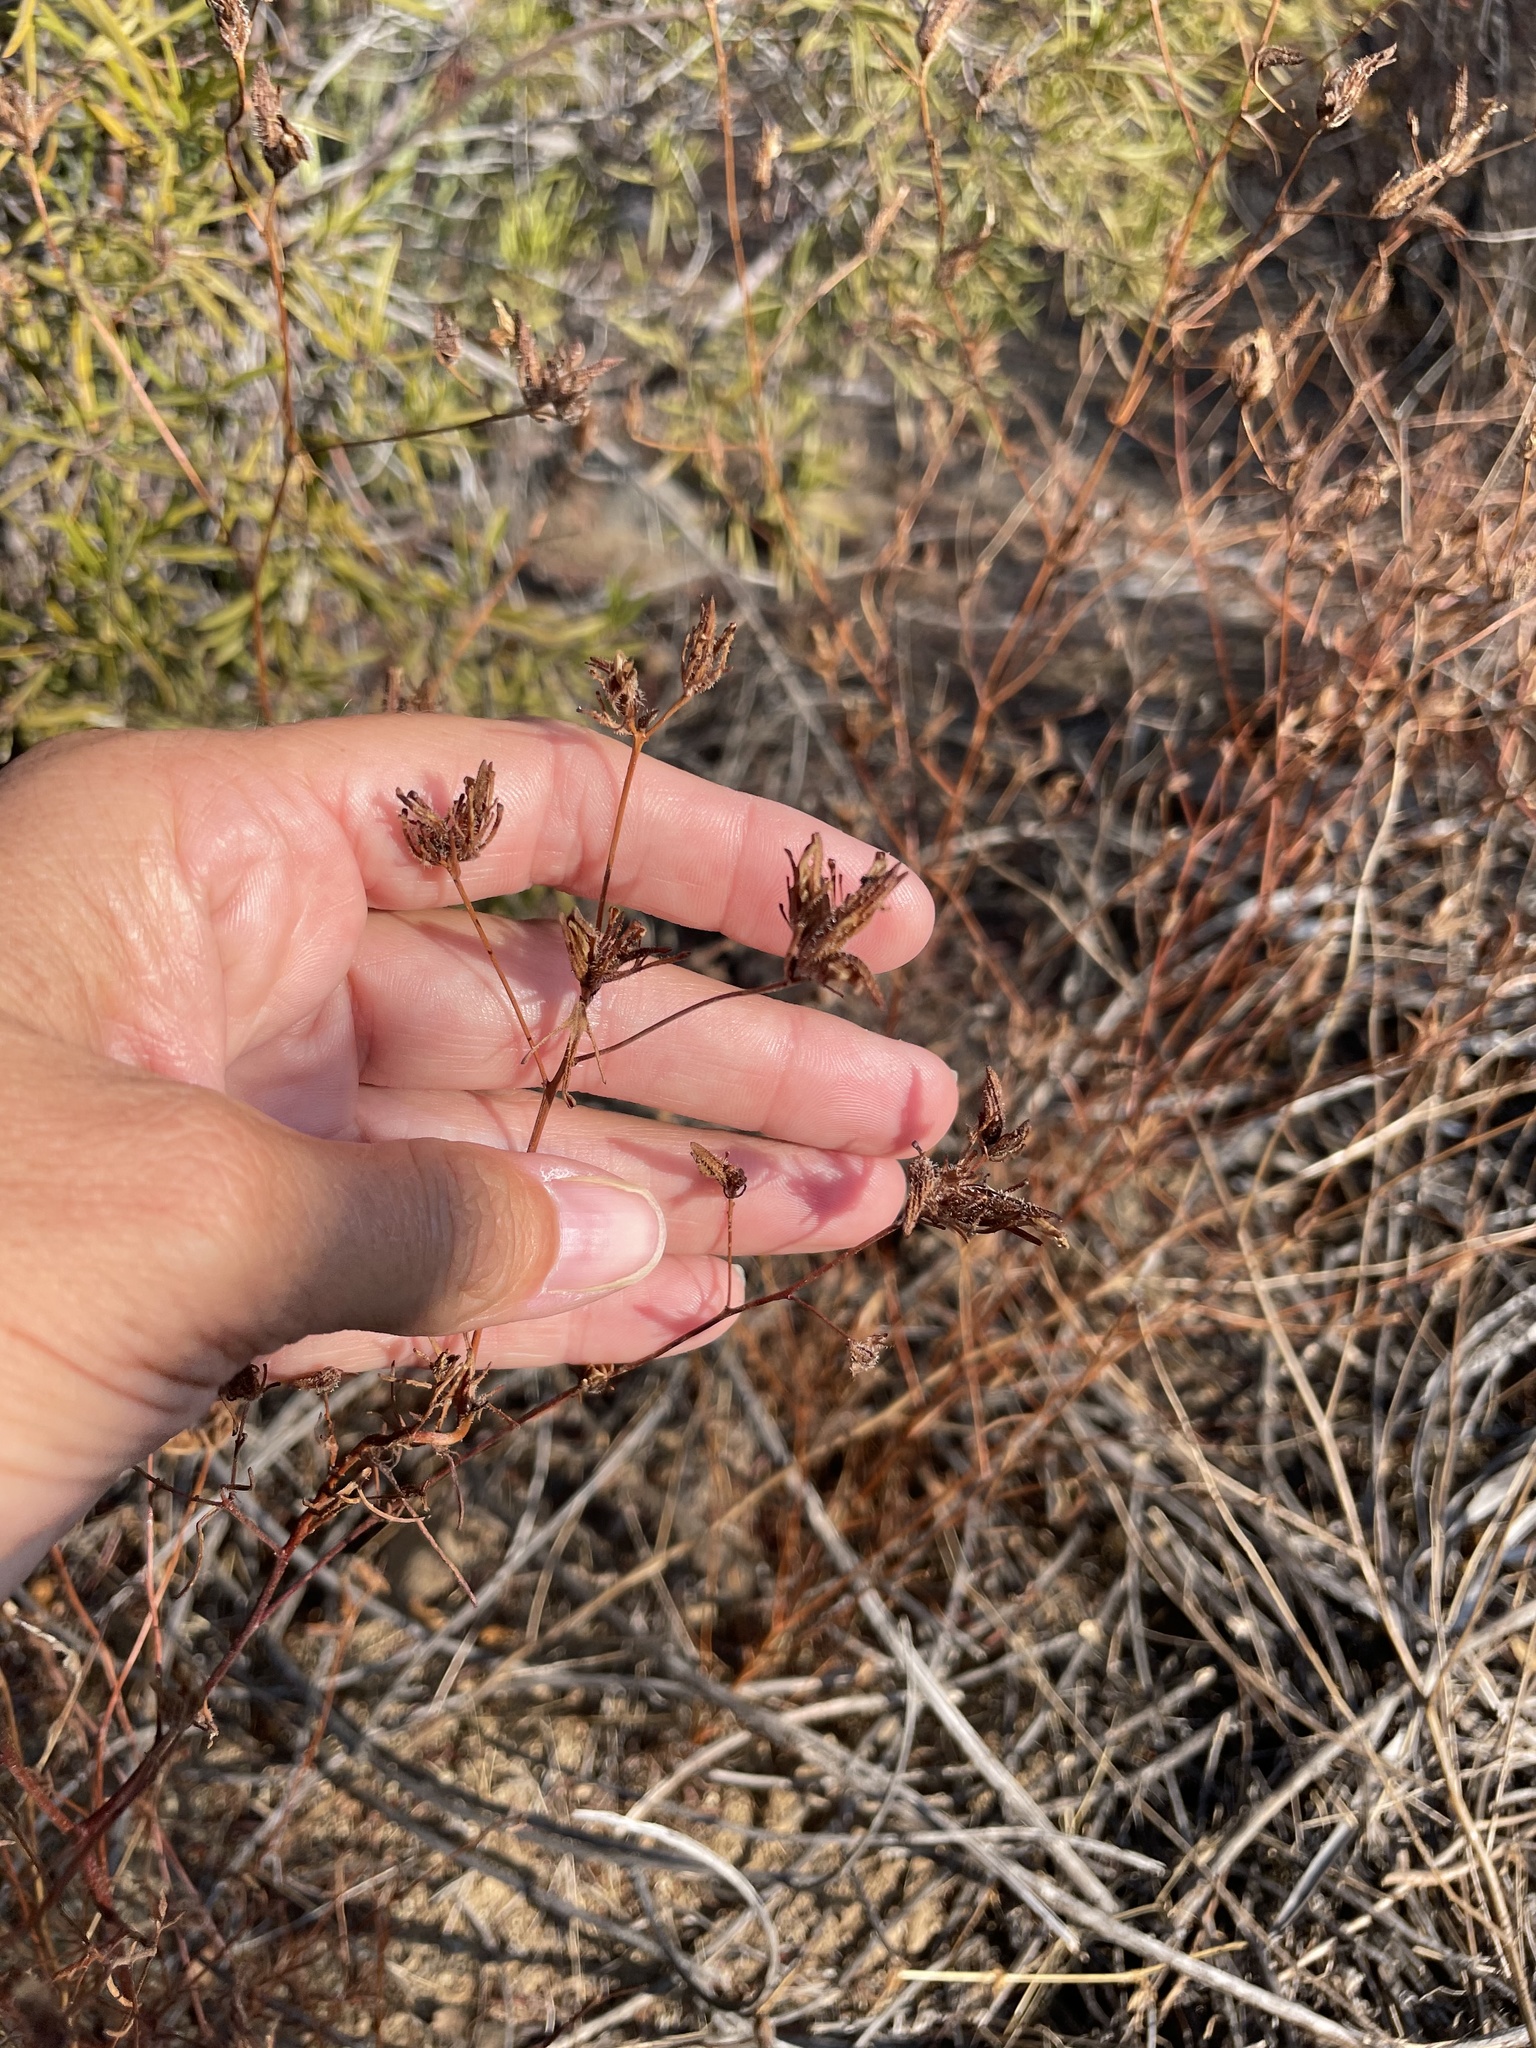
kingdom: Plantae
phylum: Tracheophyta
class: Magnoliopsida
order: Lamiales
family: Orobanchaceae
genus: Cordylanthus
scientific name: Cordylanthus rigidus
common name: Stiff-branch bird's-beak
